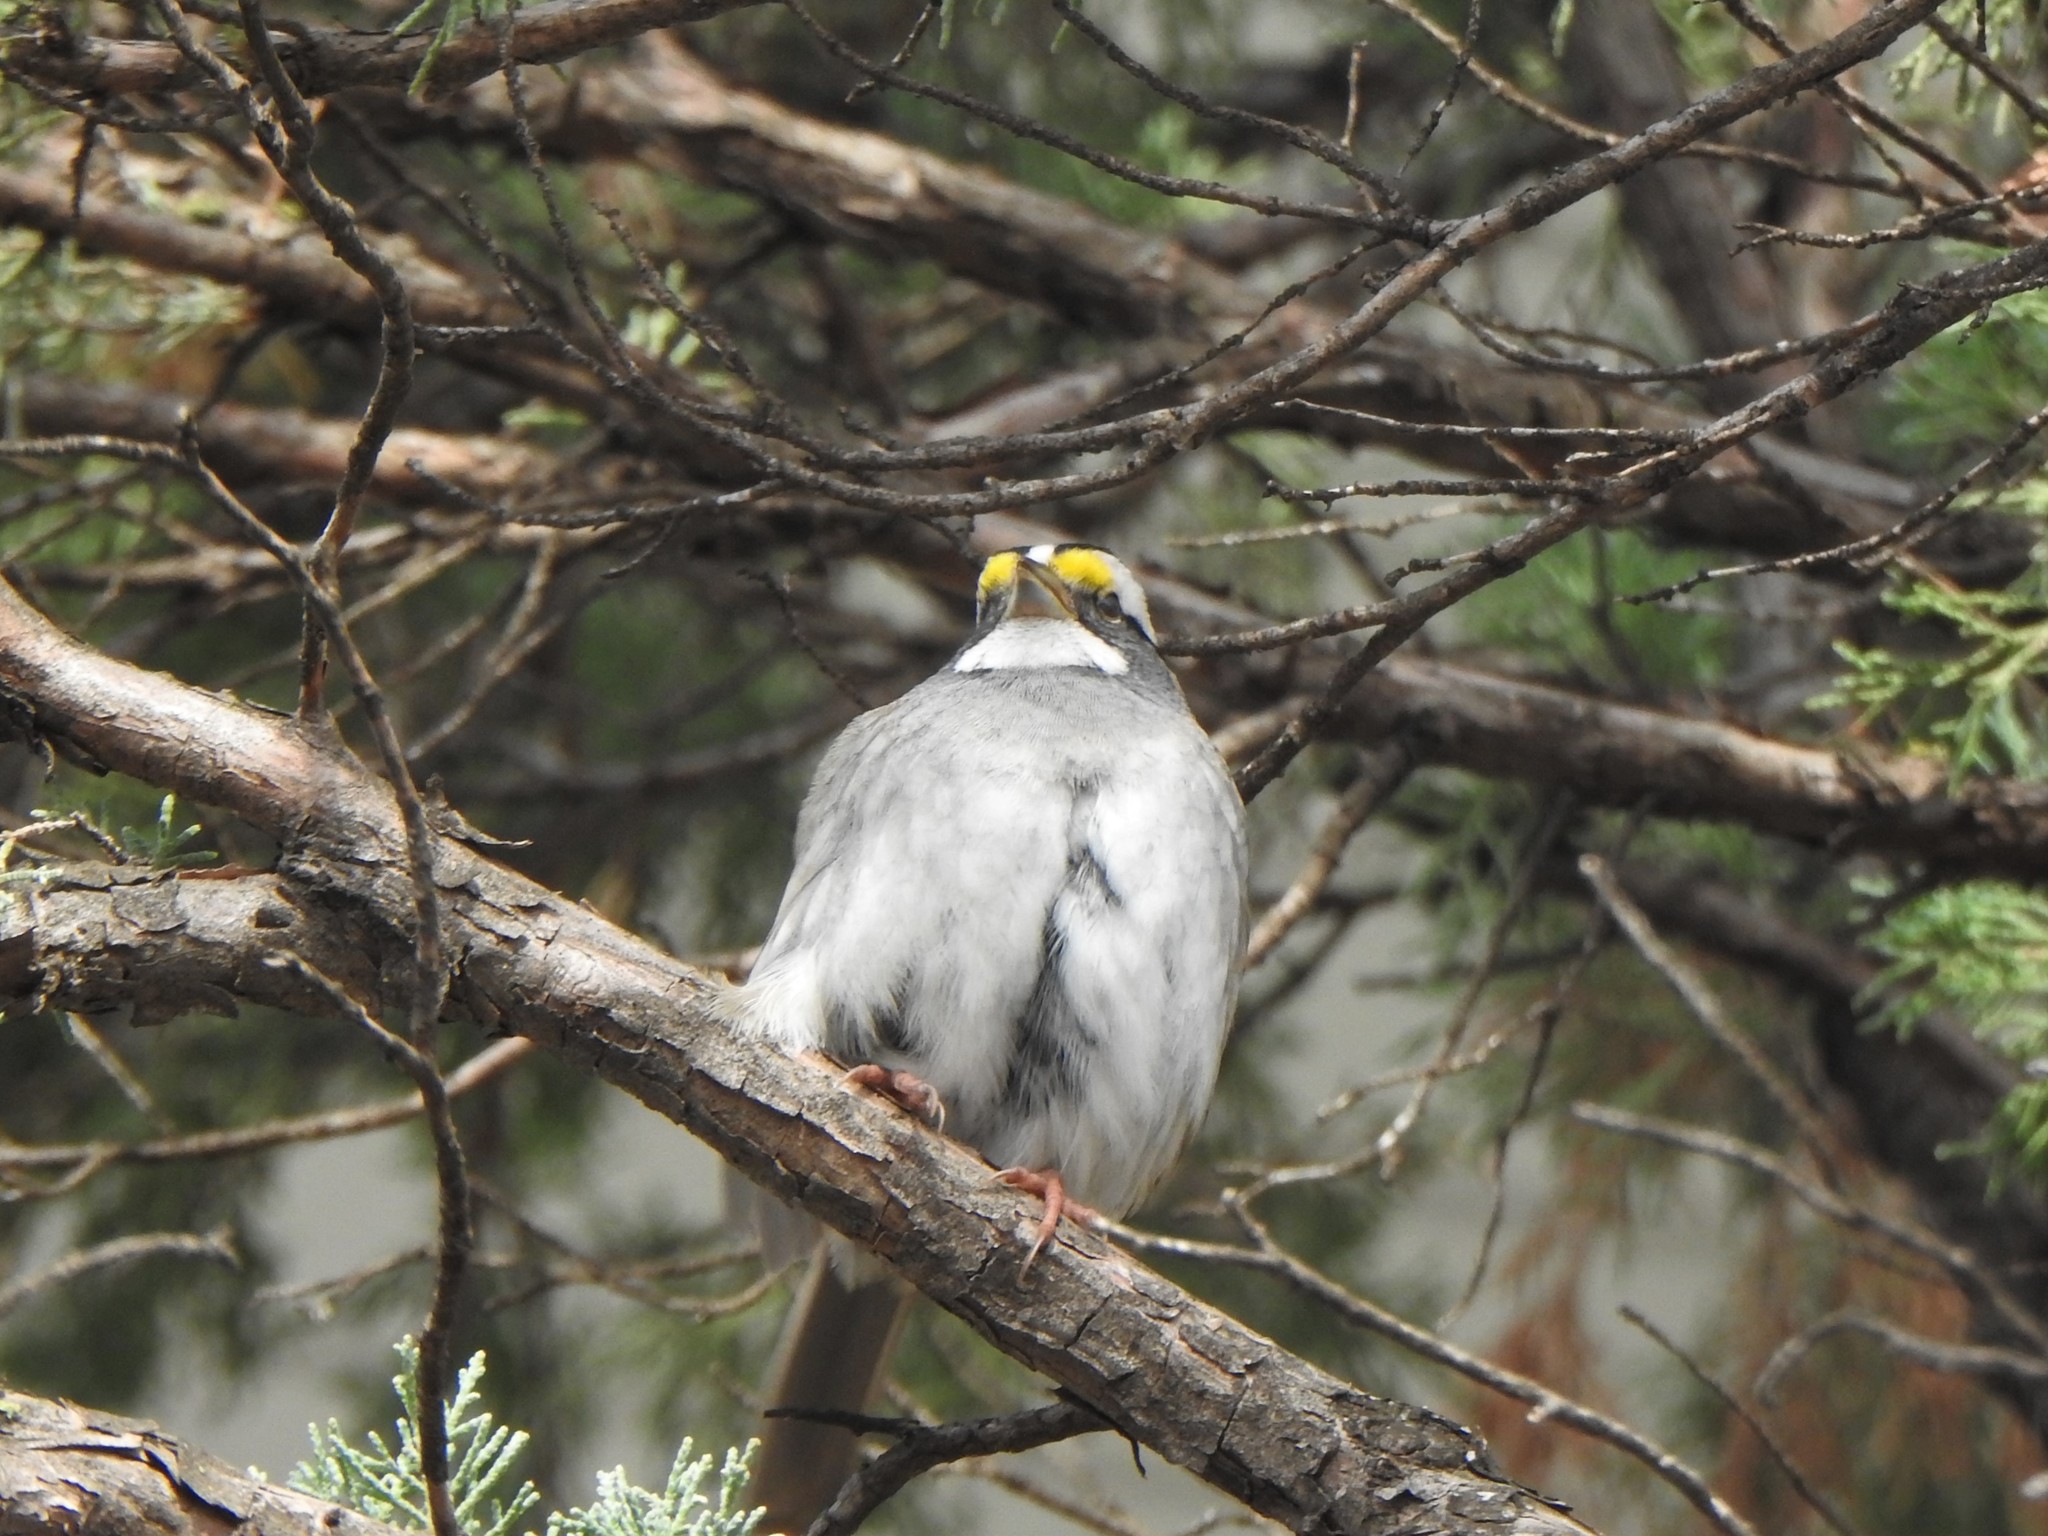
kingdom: Animalia
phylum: Chordata
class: Aves
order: Passeriformes
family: Passerellidae
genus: Zonotrichia
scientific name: Zonotrichia albicollis
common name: White-throated sparrow
